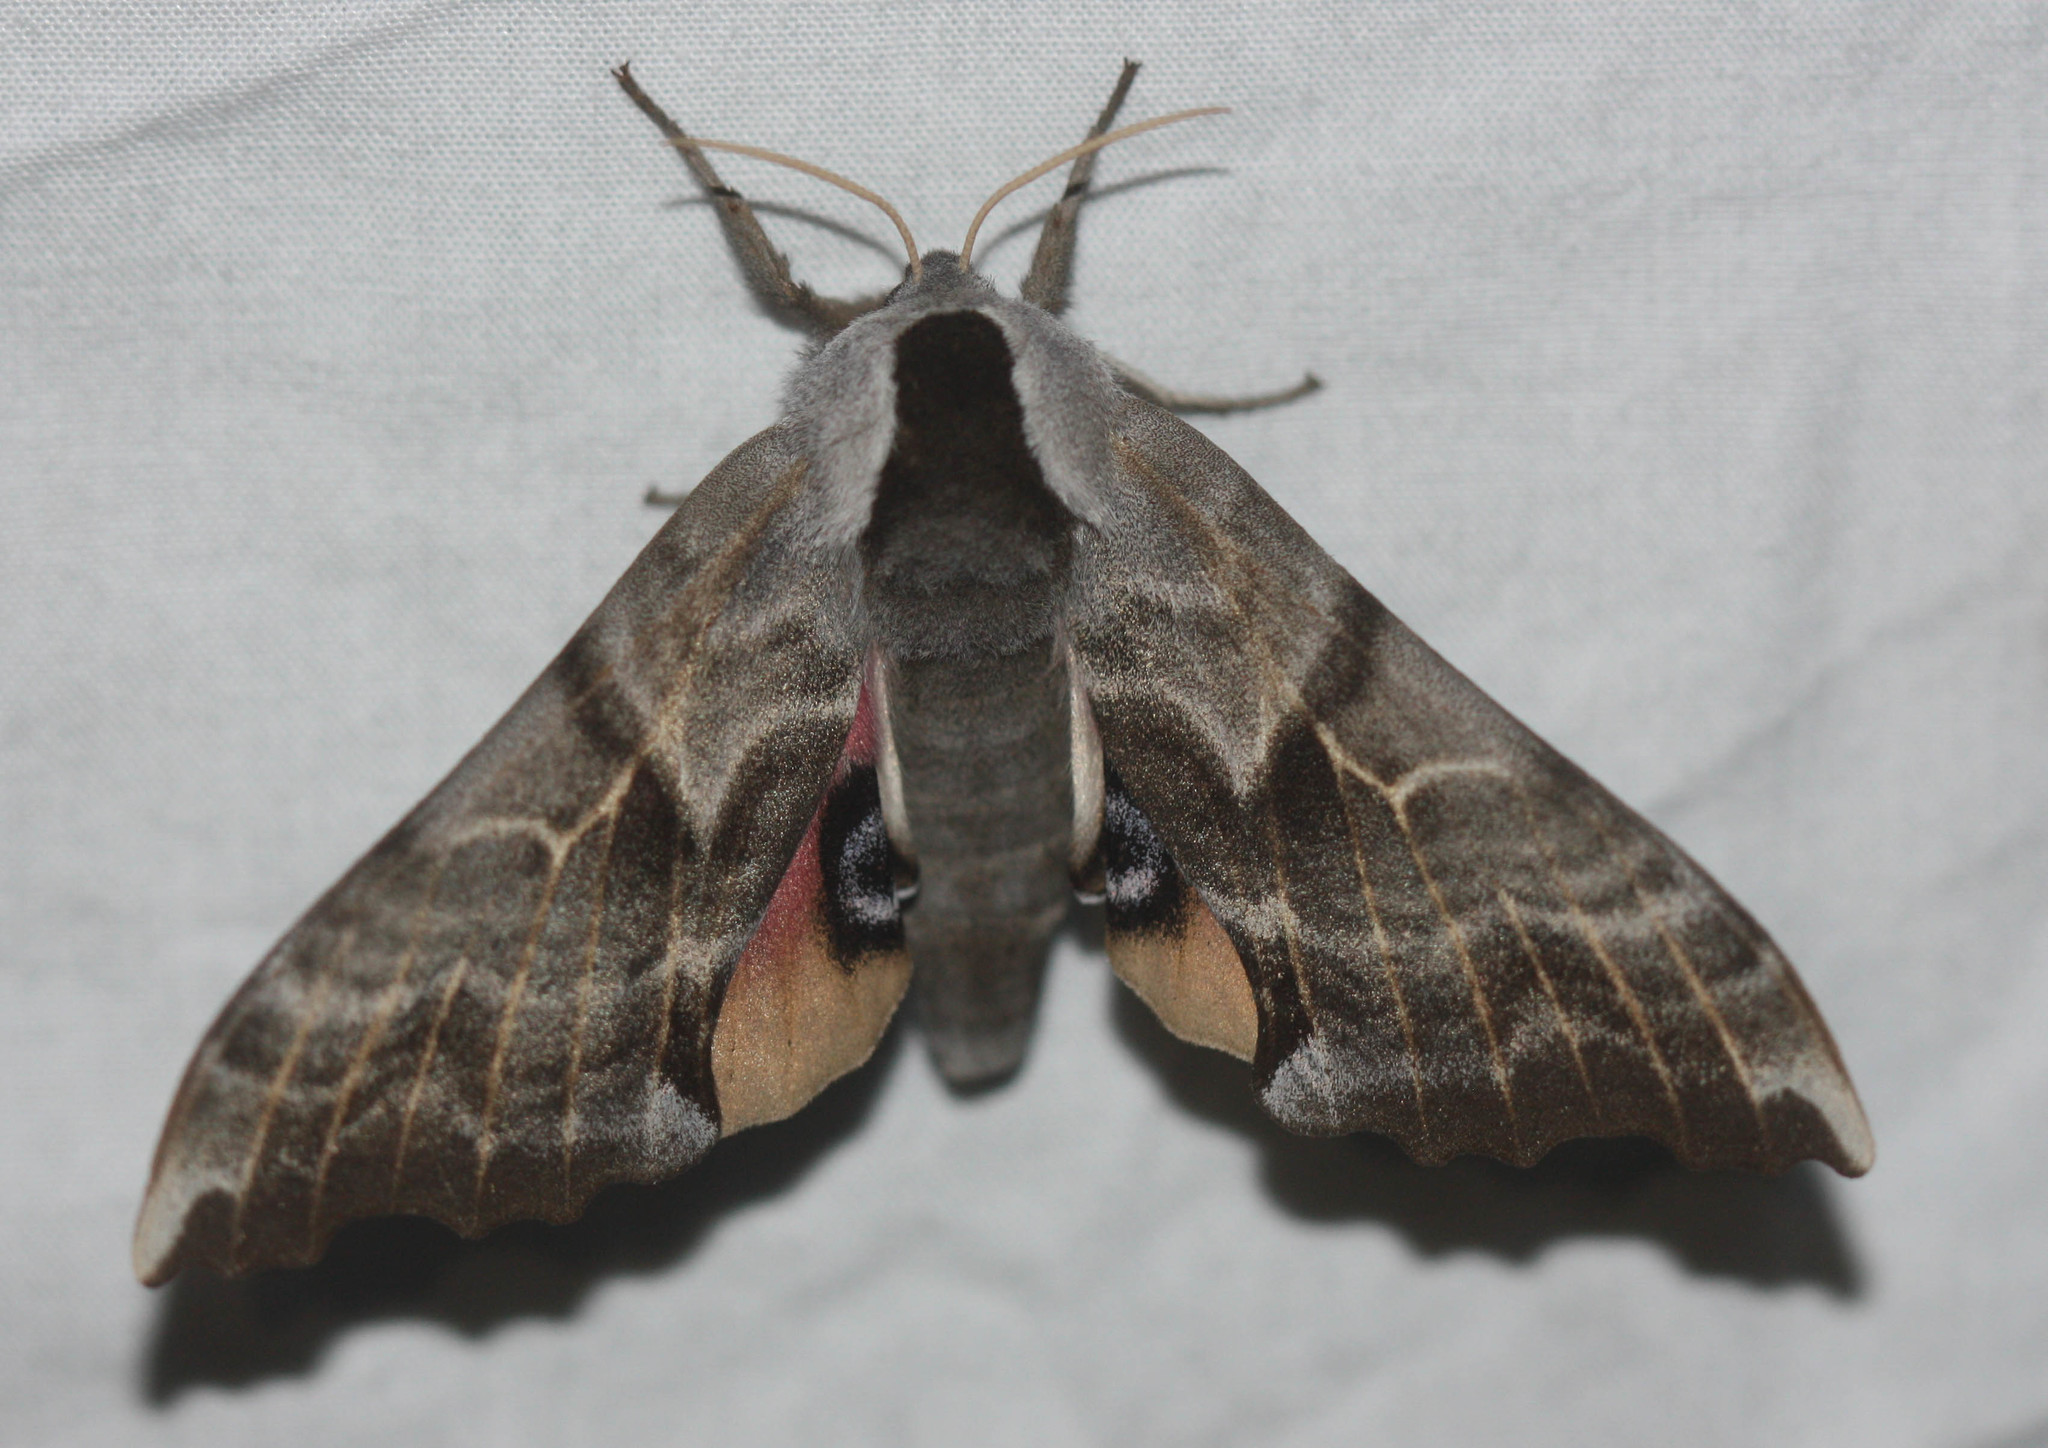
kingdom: Animalia
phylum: Arthropoda
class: Insecta
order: Lepidoptera
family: Sphingidae
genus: Smerinthus
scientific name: Smerinthus cerisyi
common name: Cerisy's sphinx moth
